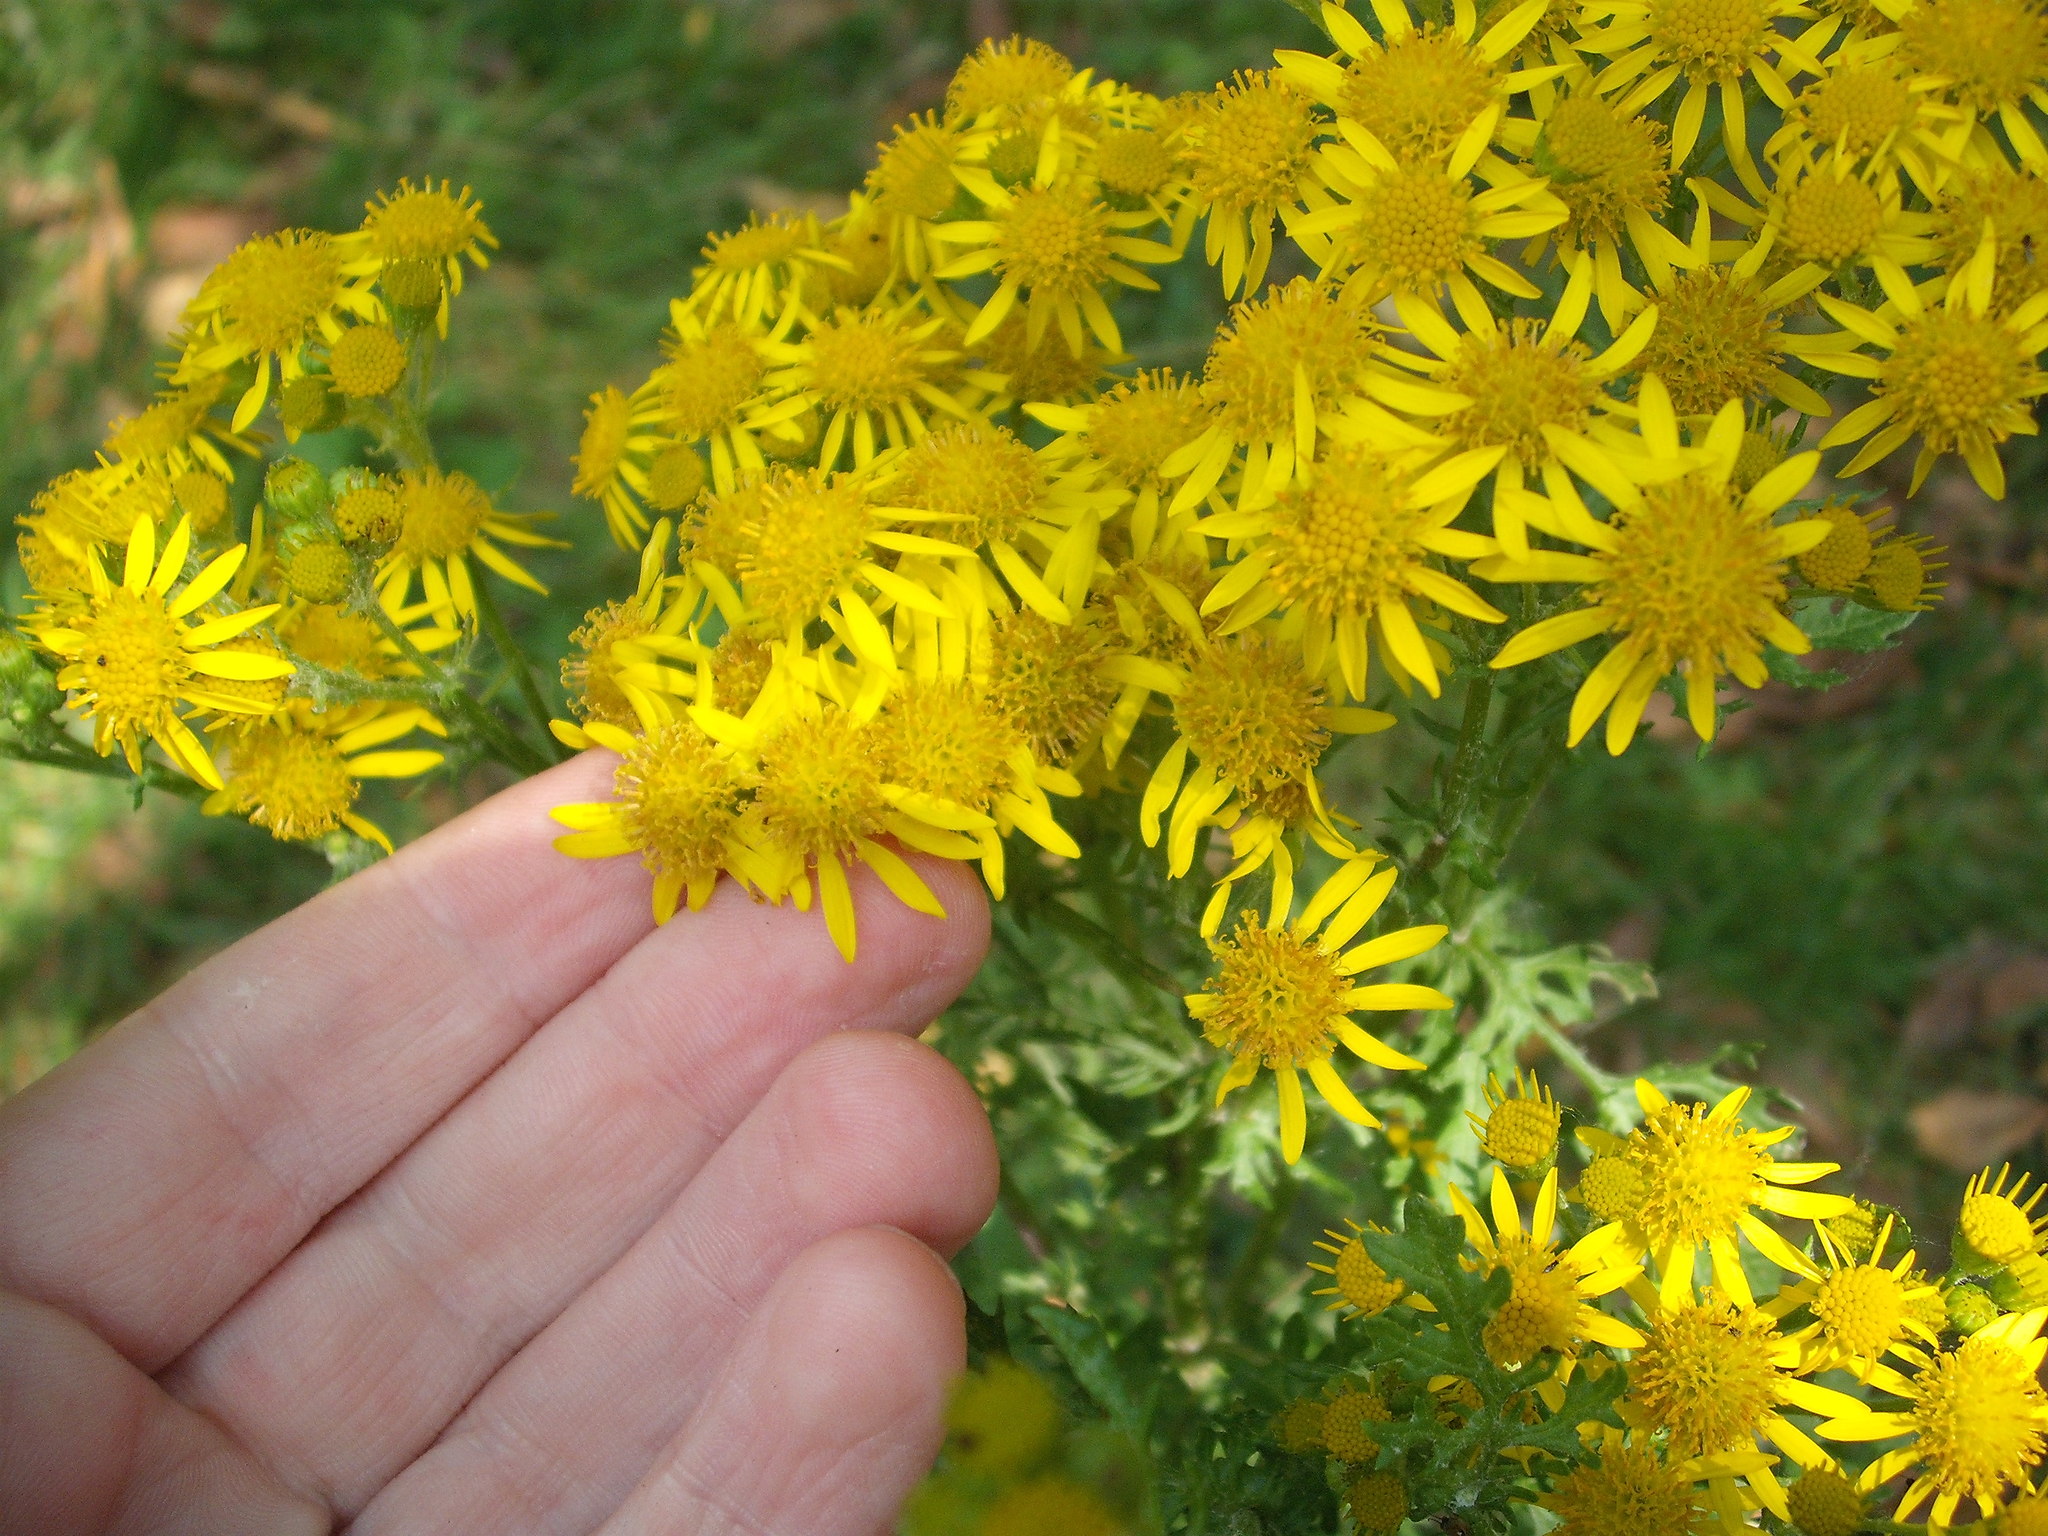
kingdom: Plantae
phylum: Tracheophyta
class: Magnoliopsida
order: Asterales
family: Asteraceae
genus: Jacobaea
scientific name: Jacobaea vulgaris
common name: Stinking willie
